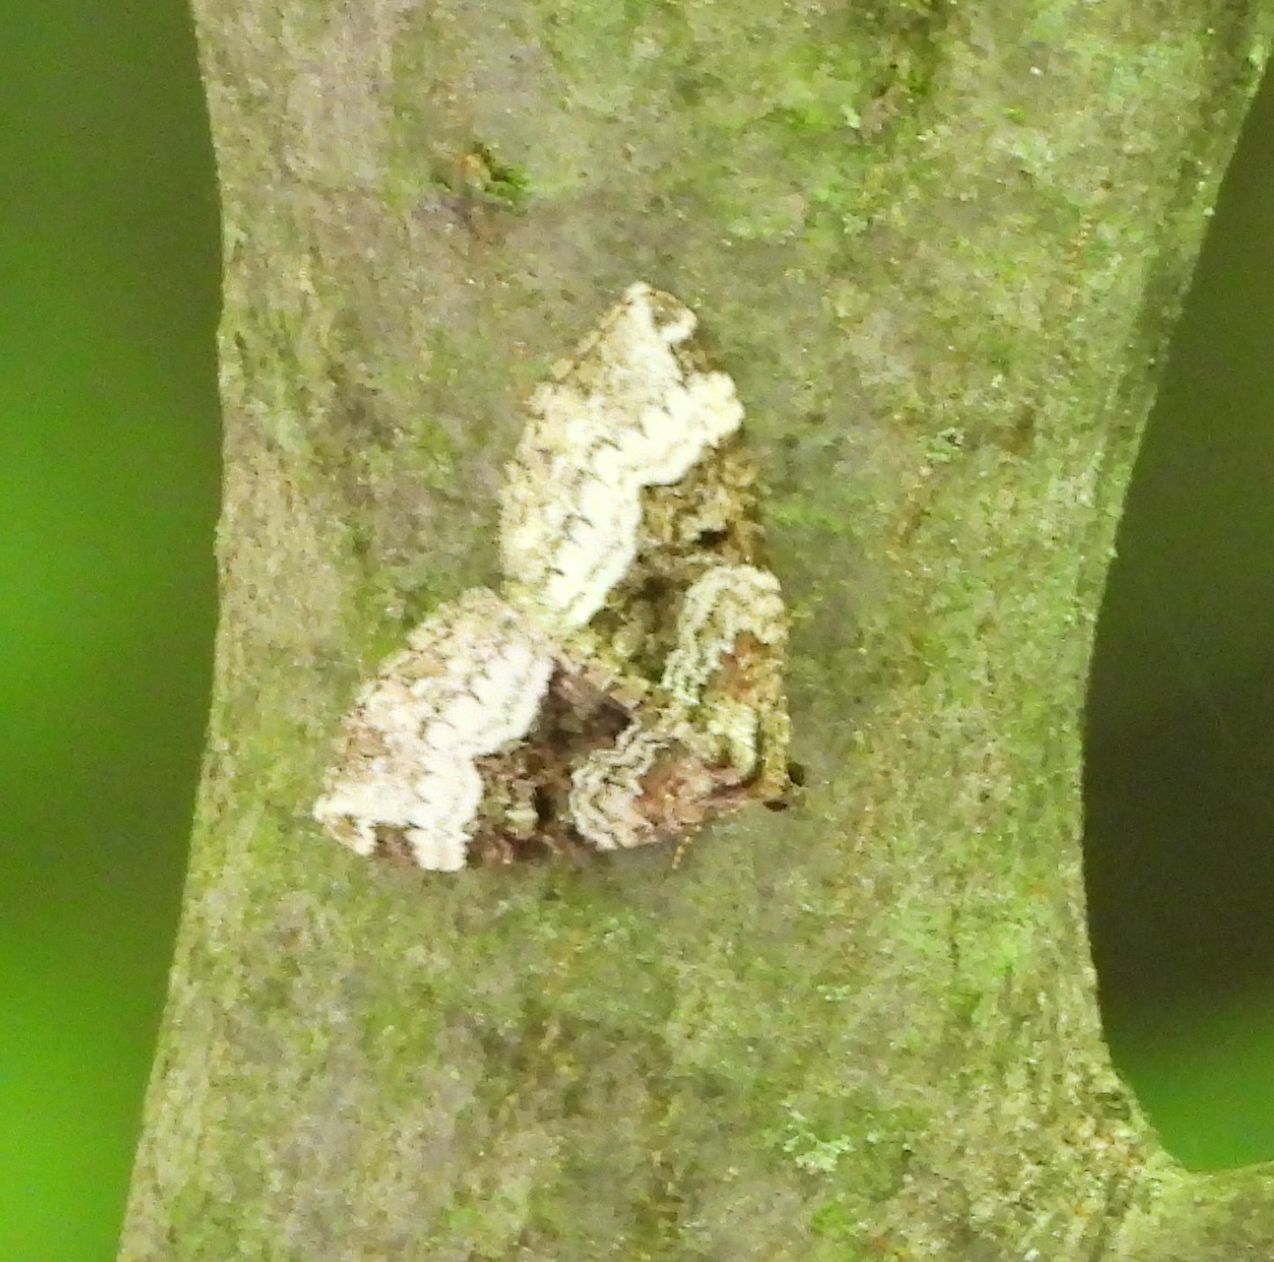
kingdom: Animalia
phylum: Arthropoda
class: Insecta
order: Lepidoptera
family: Geometridae
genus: Euphyia
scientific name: Euphyia intermediata
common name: Sharp-angled carpet
